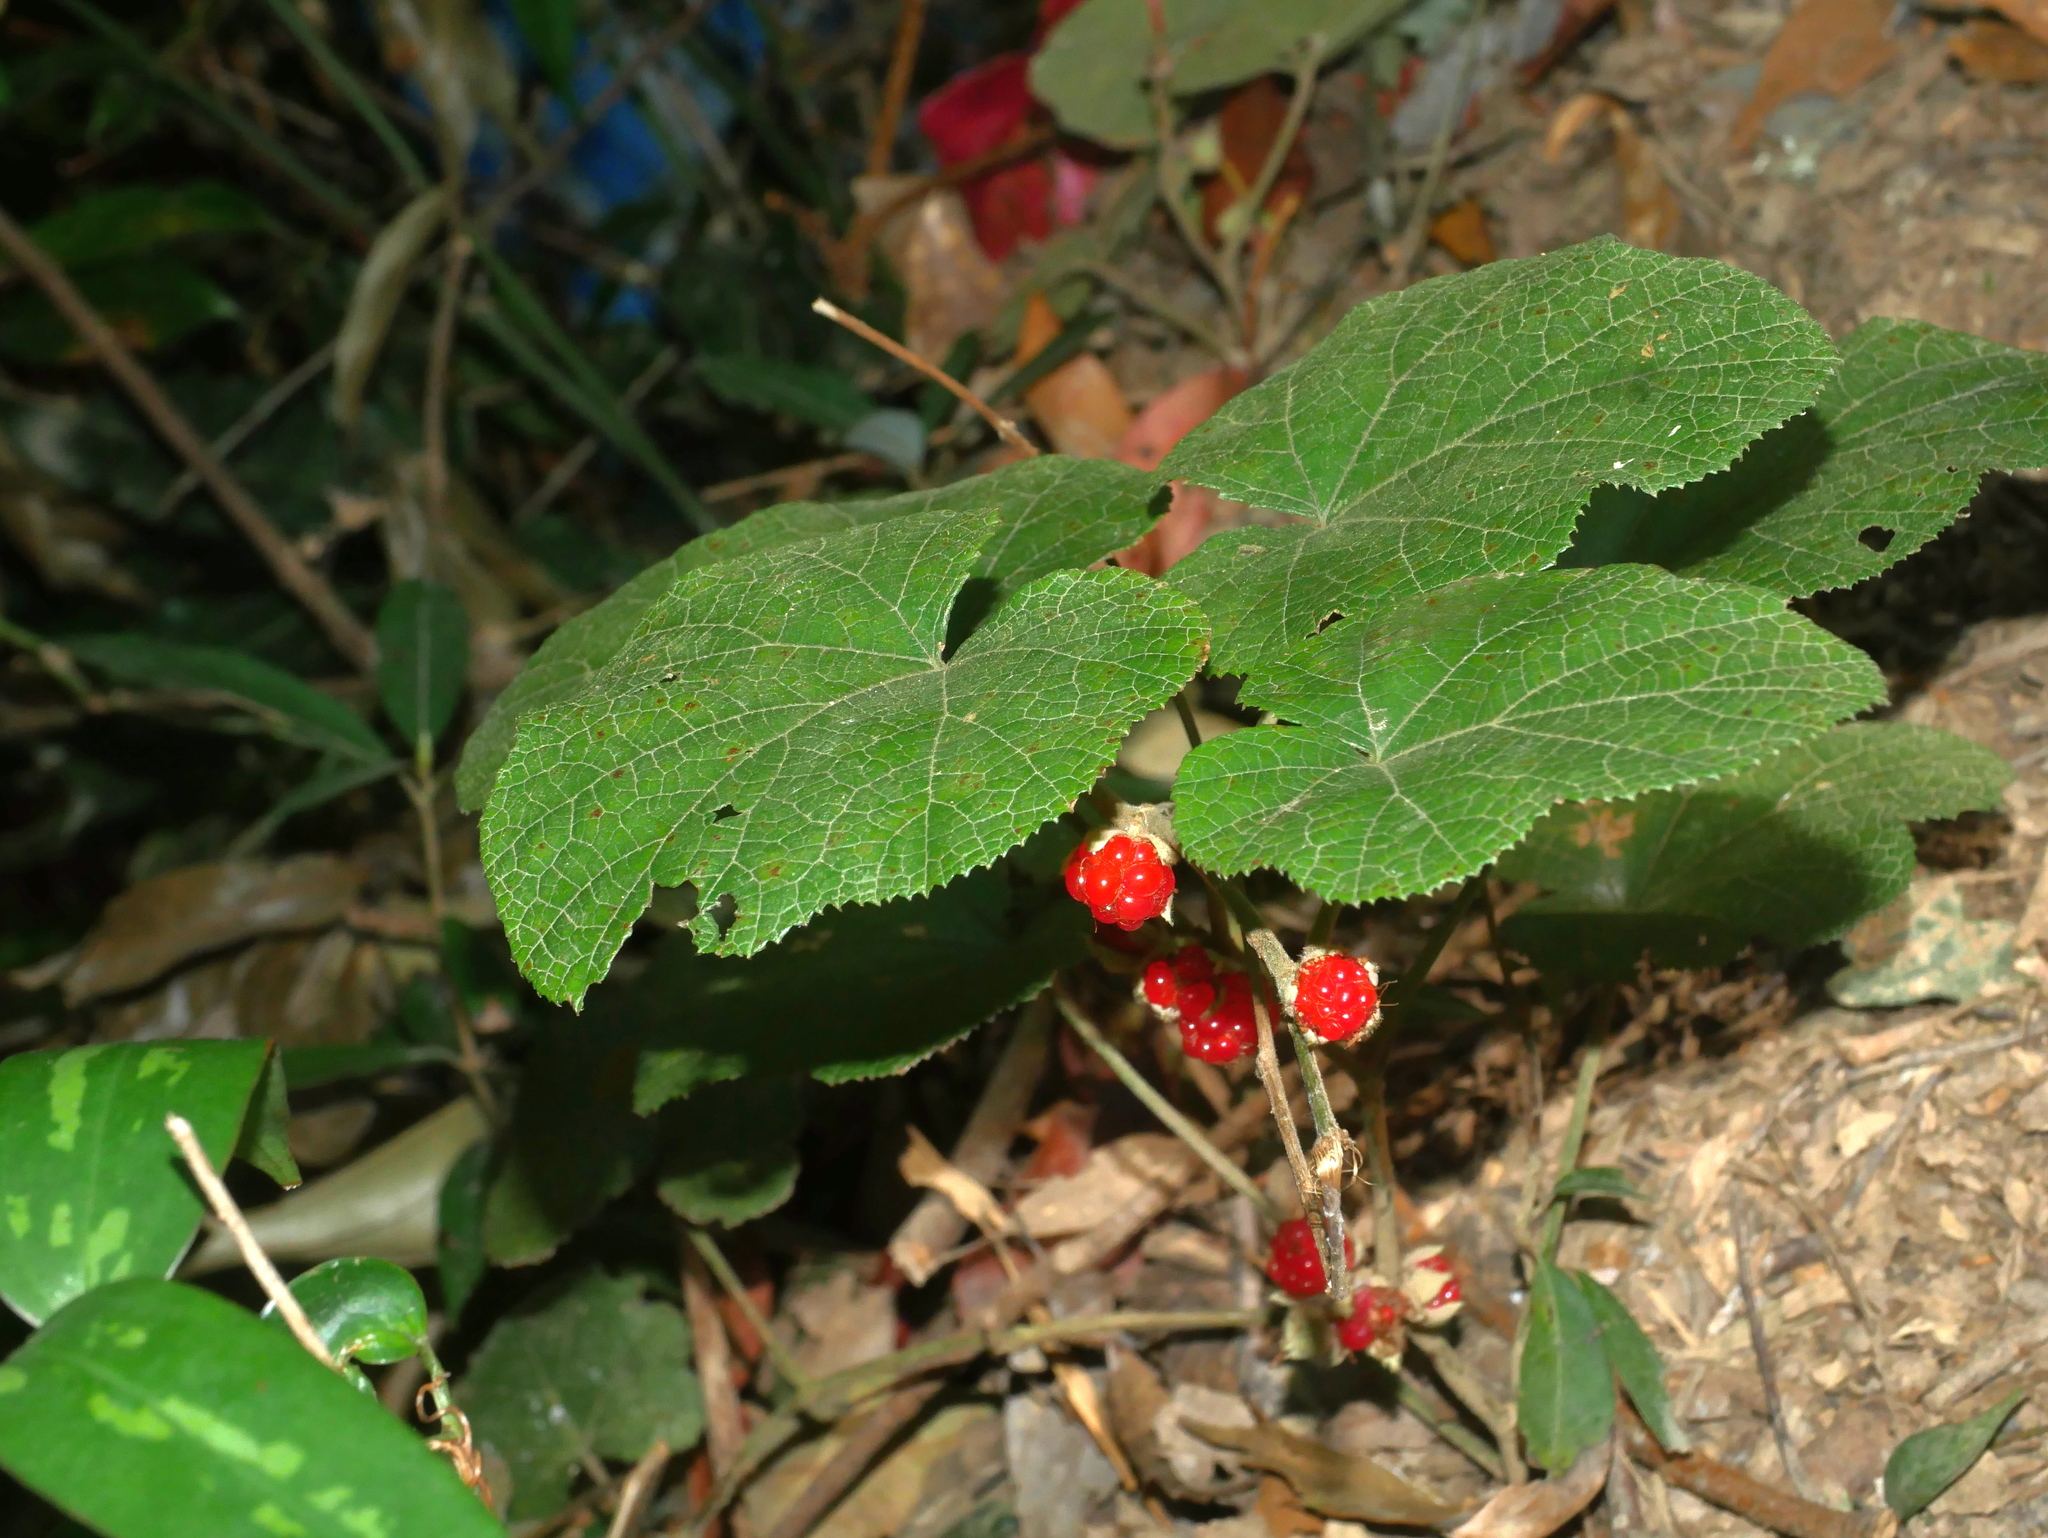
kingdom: Plantae
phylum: Tracheophyta
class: Magnoliopsida
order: Rosales
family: Rosaceae
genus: Rubus
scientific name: Rubus buergeri
